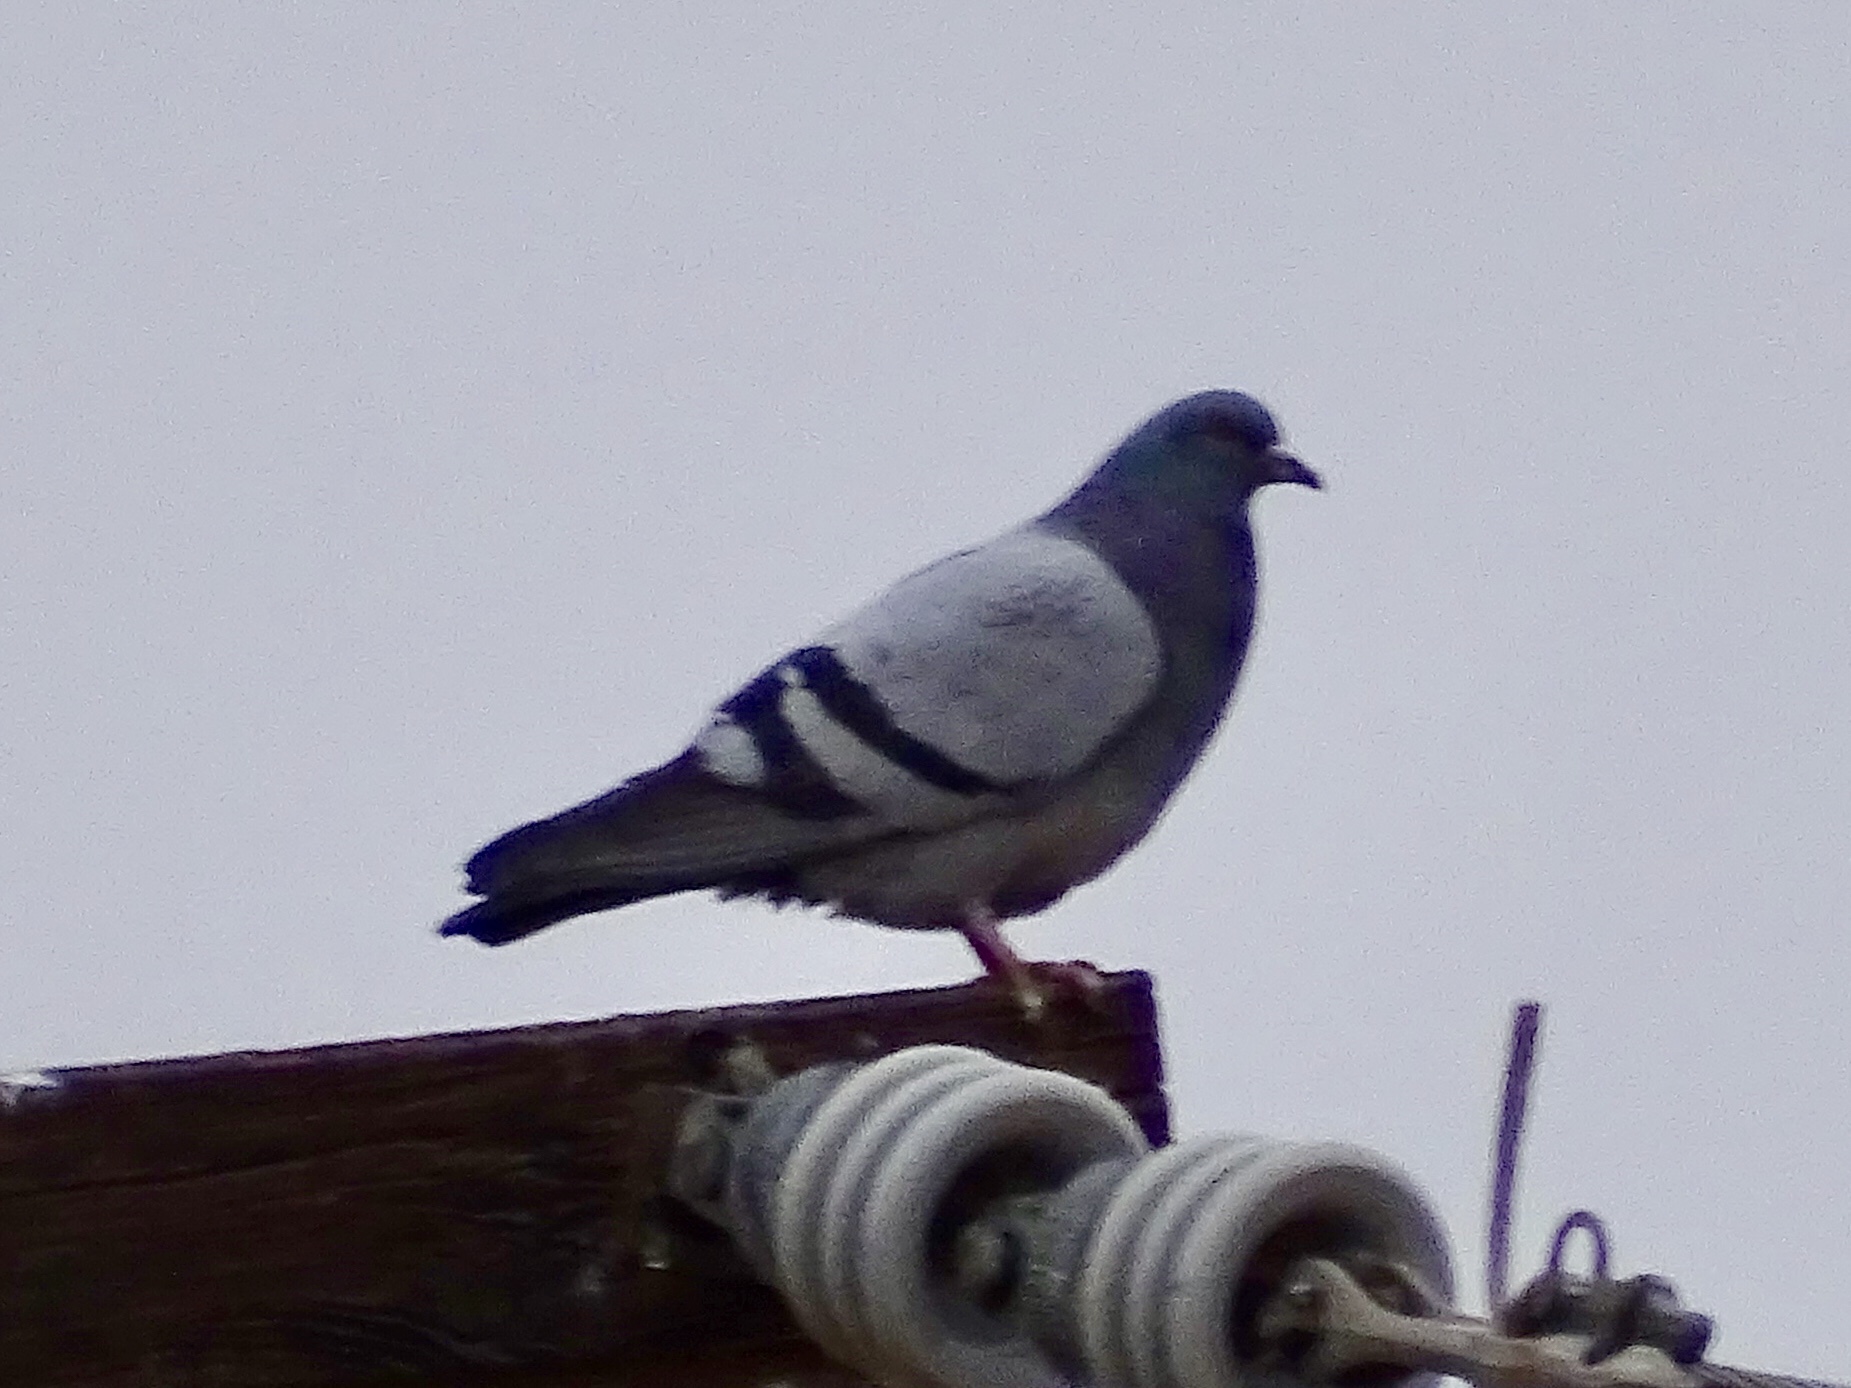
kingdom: Animalia
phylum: Chordata
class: Aves
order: Columbiformes
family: Columbidae
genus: Columba
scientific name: Columba livia
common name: Rock pigeon
